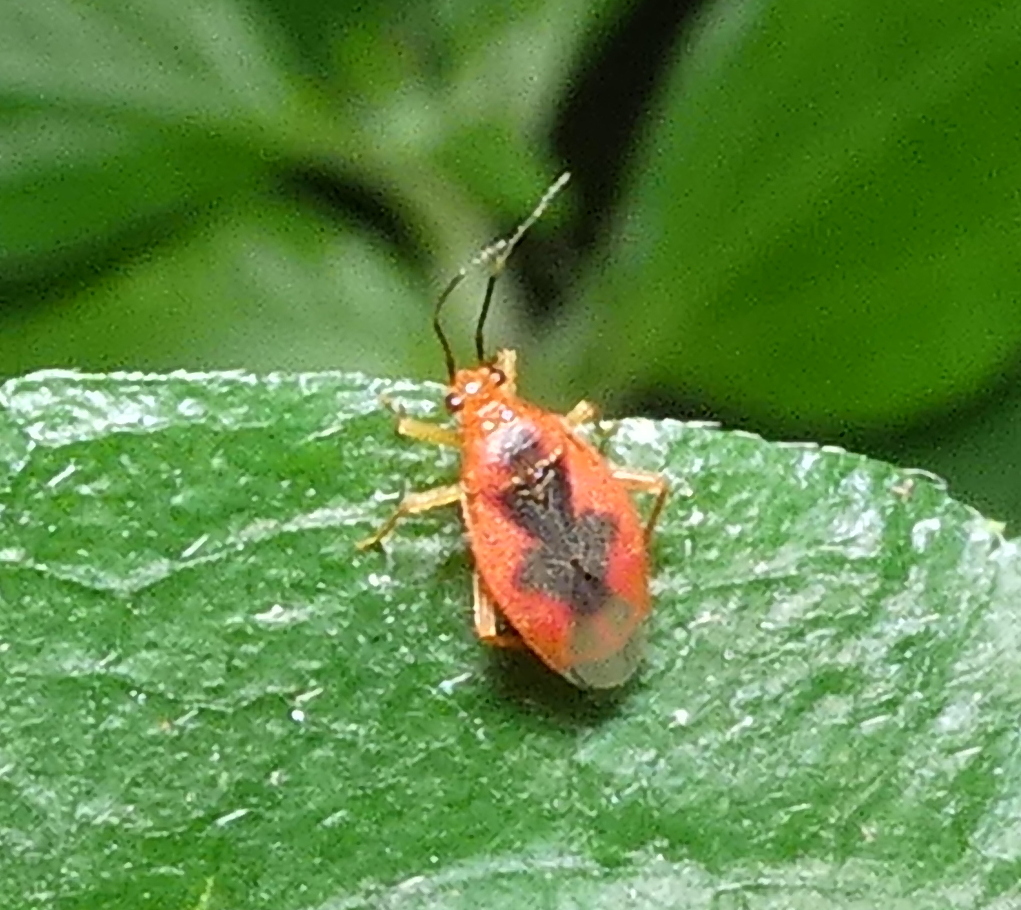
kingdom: Animalia
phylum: Arthropoda
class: Insecta
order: Hemiptera
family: Miridae
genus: Parafurius
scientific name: Parafurius discifer
